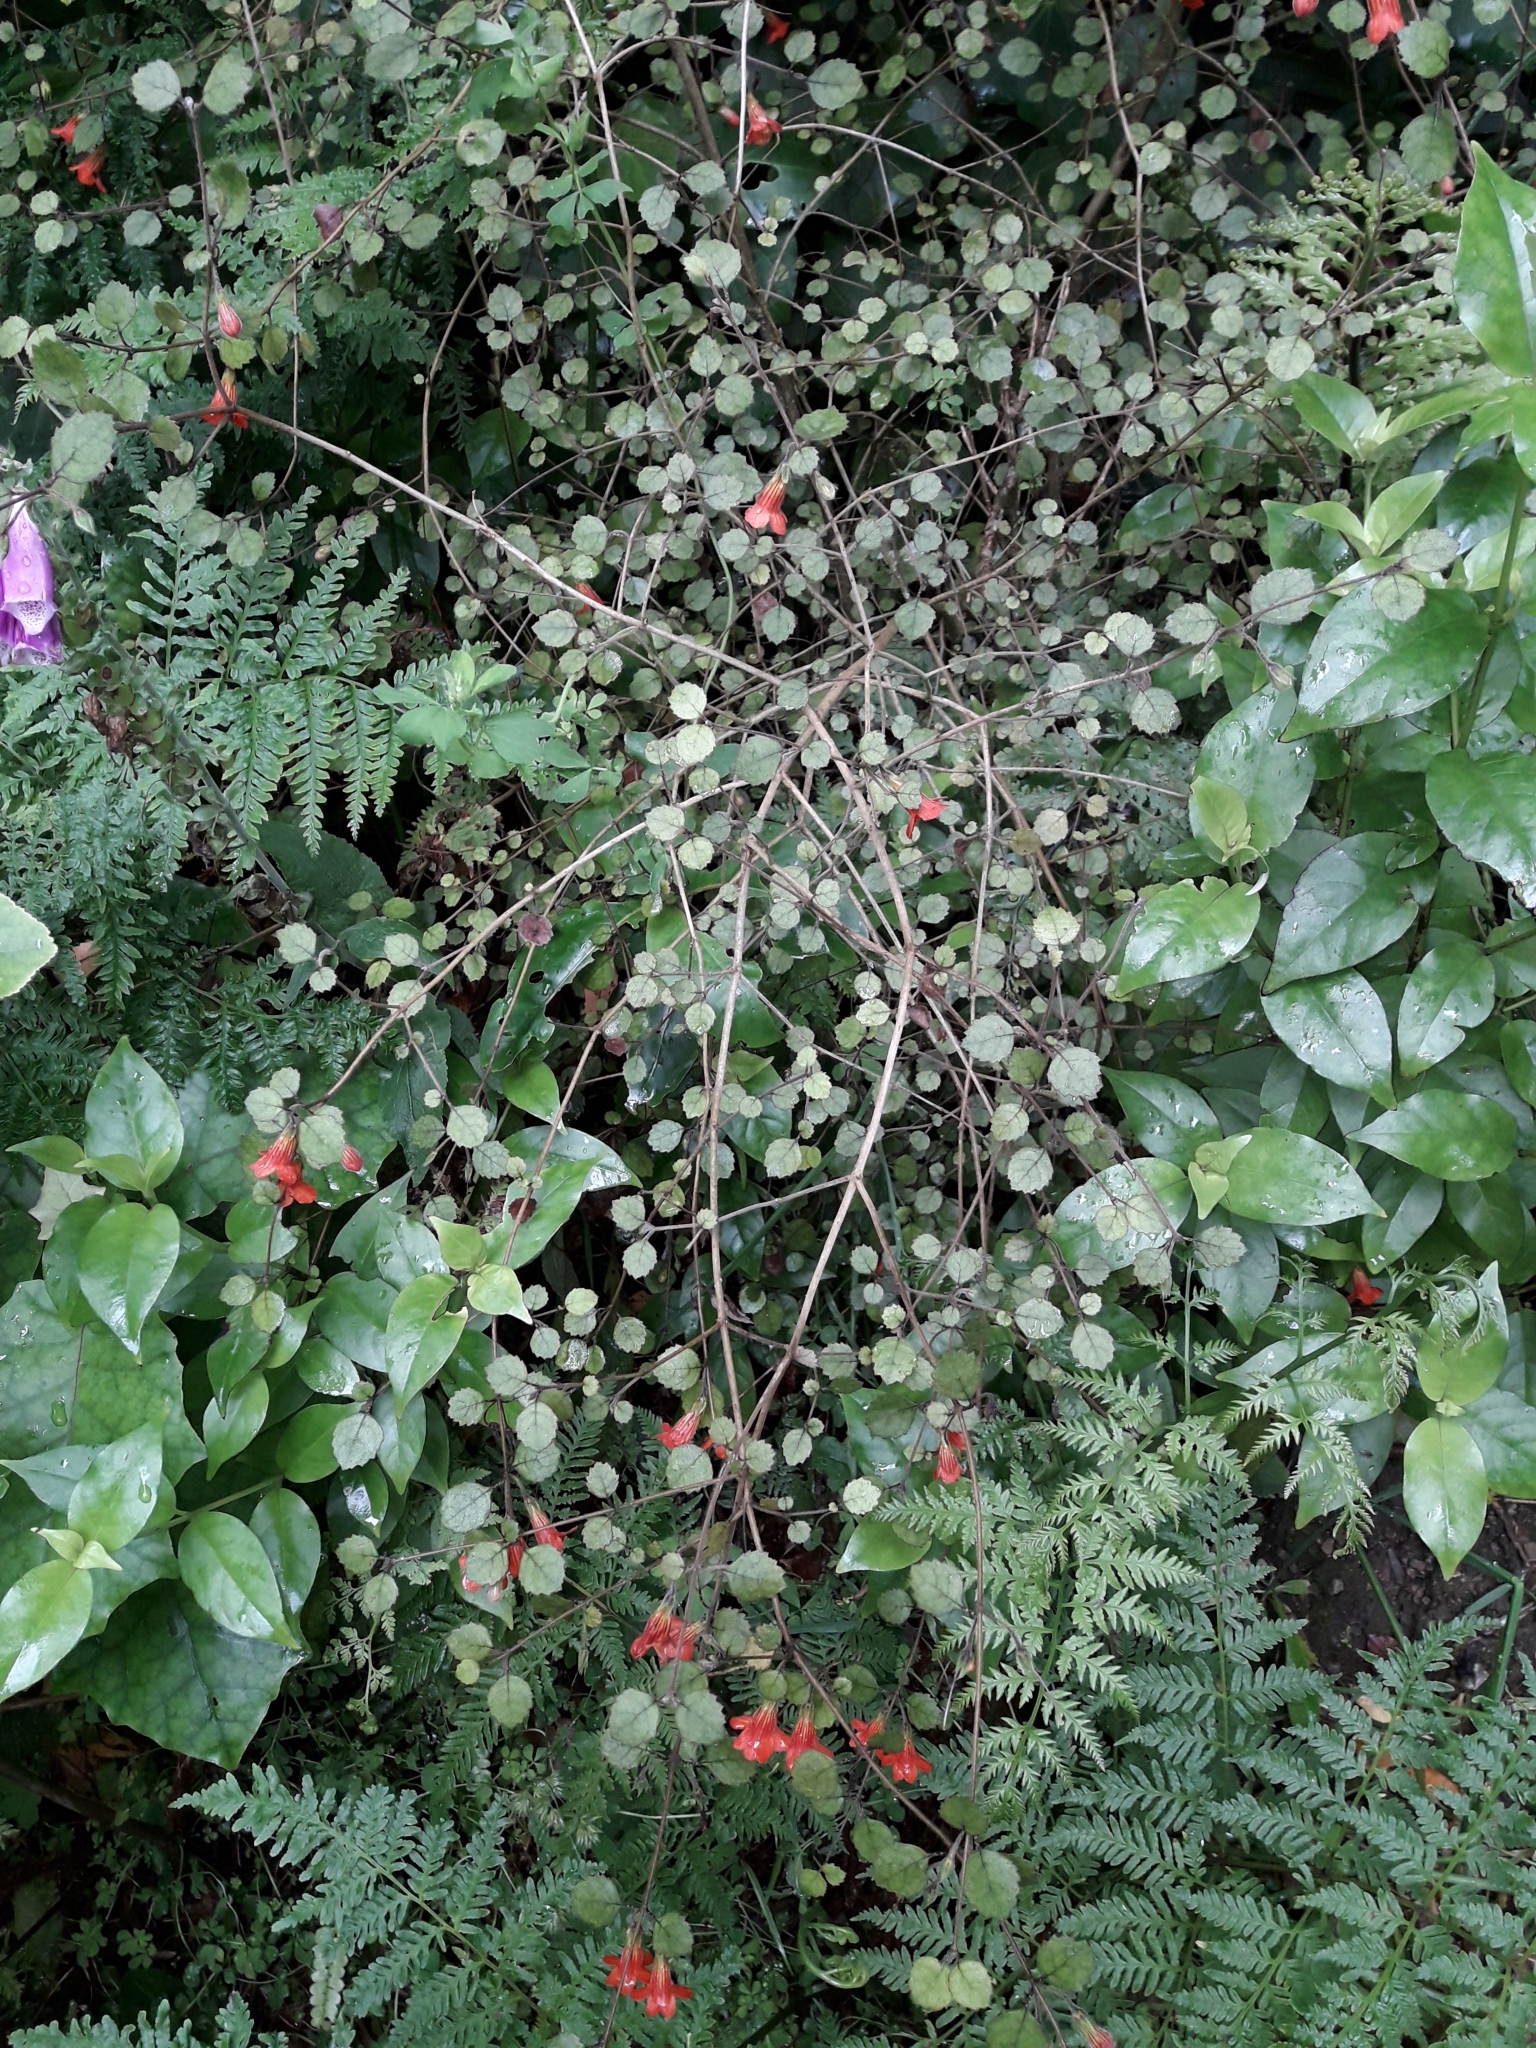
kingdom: Plantae
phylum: Tracheophyta
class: Magnoliopsida
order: Lamiales
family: Gesneriaceae
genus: Rhabdothamnus
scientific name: Rhabdothamnus solandri
